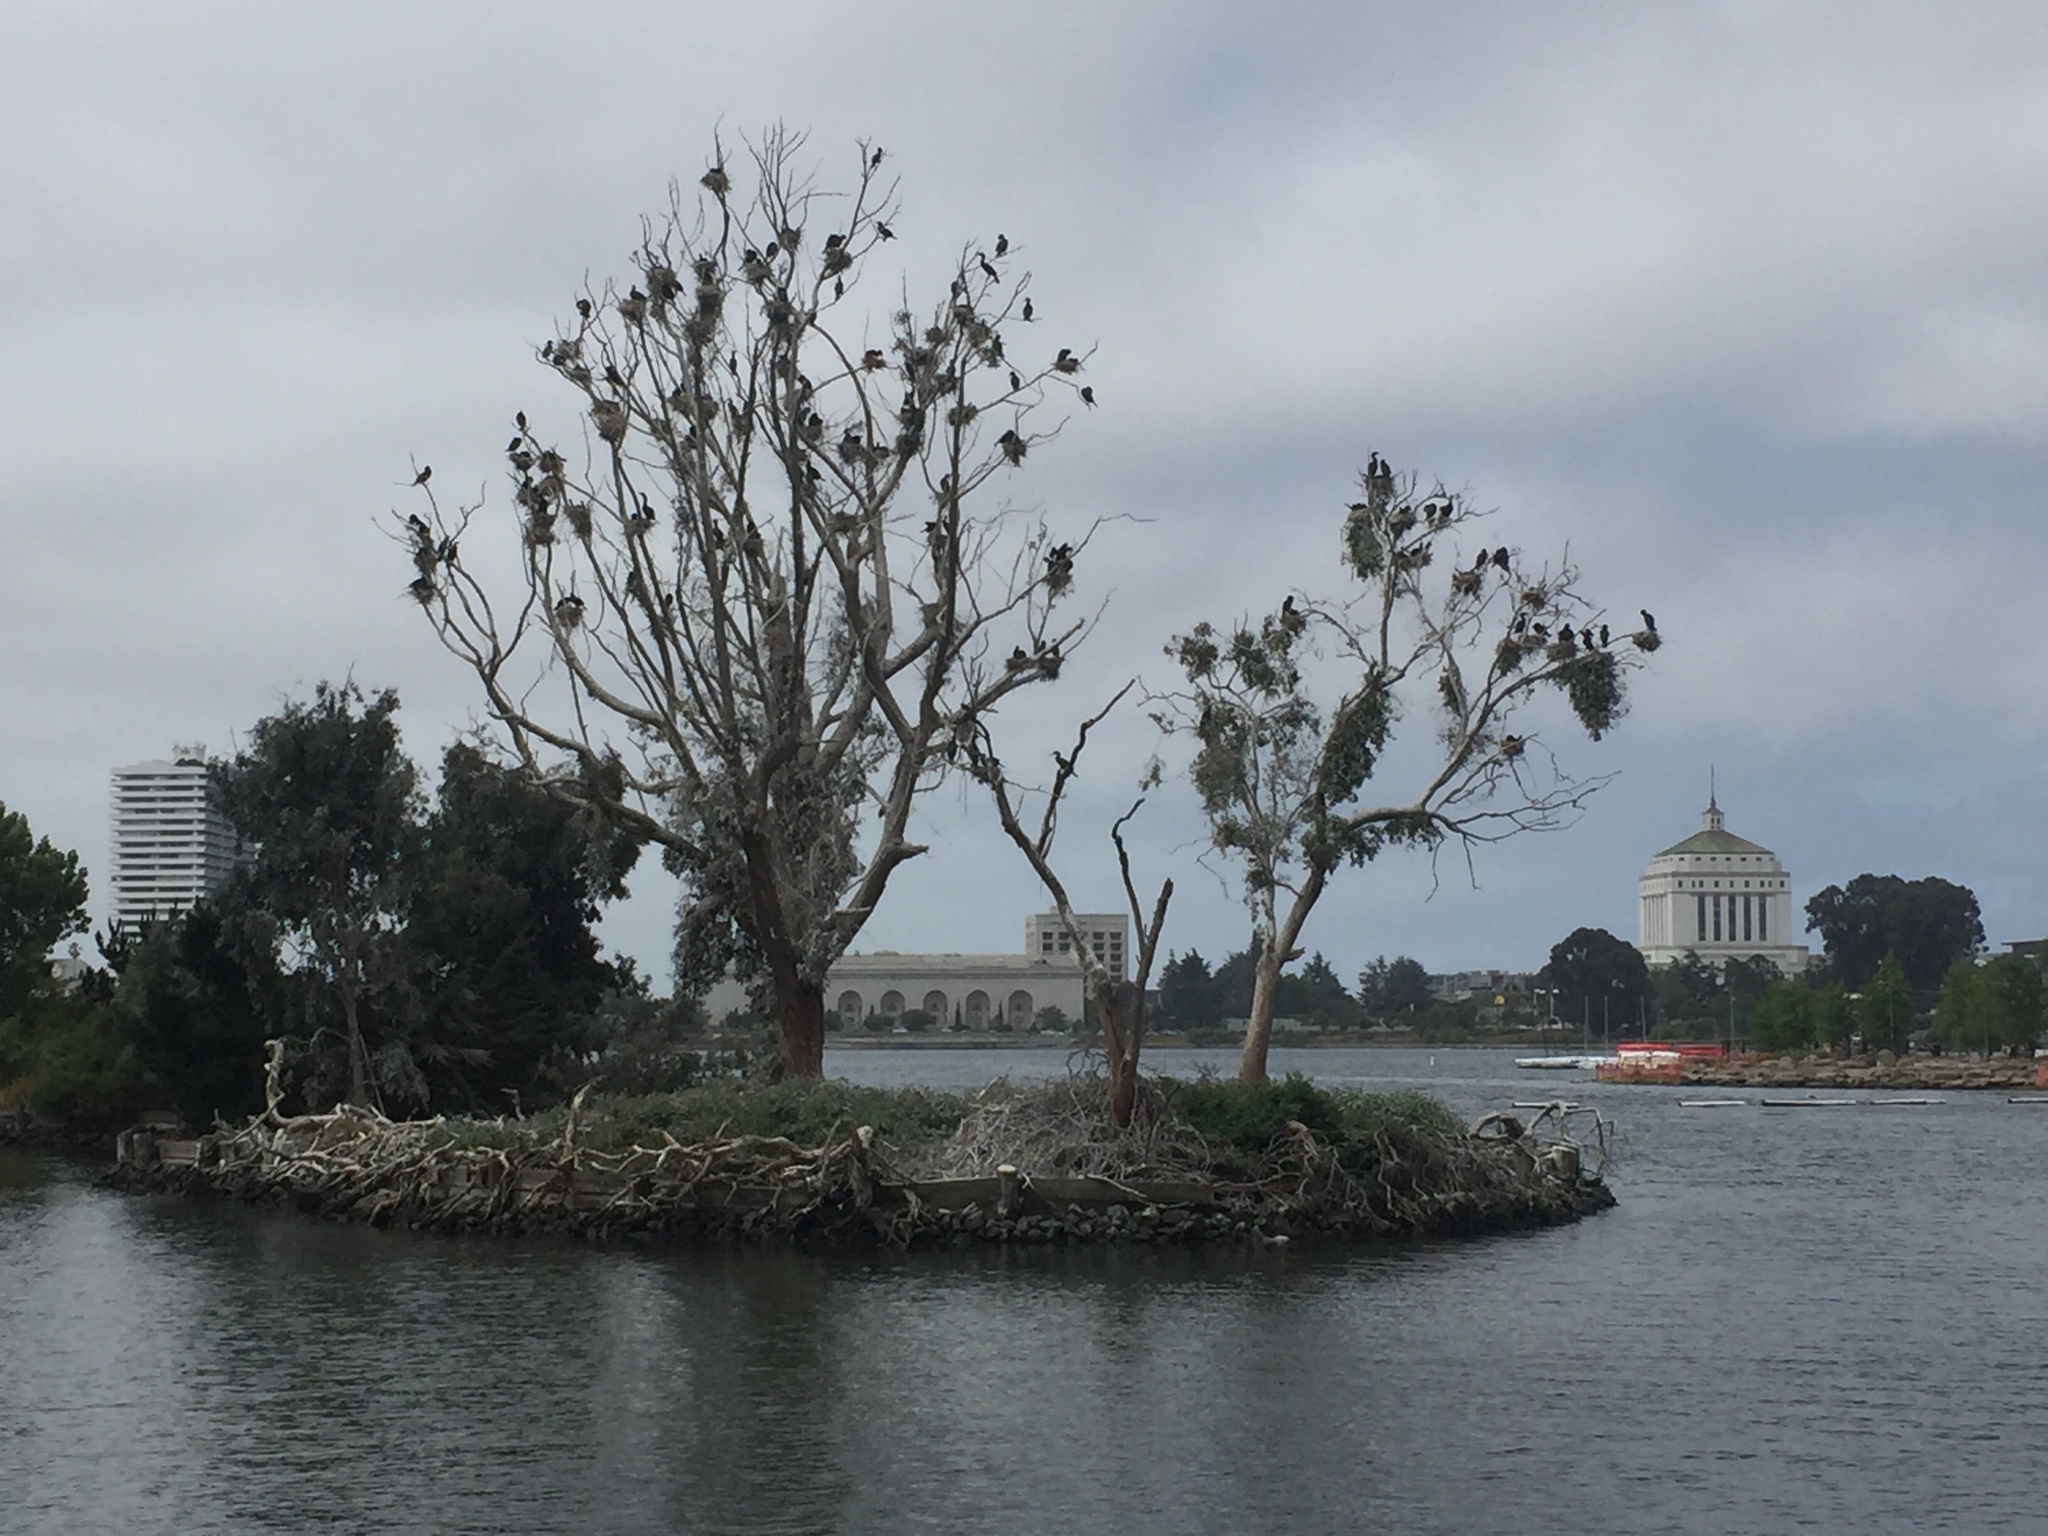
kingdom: Animalia
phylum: Chordata
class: Aves
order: Suliformes
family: Phalacrocoracidae
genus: Phalacrocorax
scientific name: Phalacrocorax auritus
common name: Double-crested cormorant
